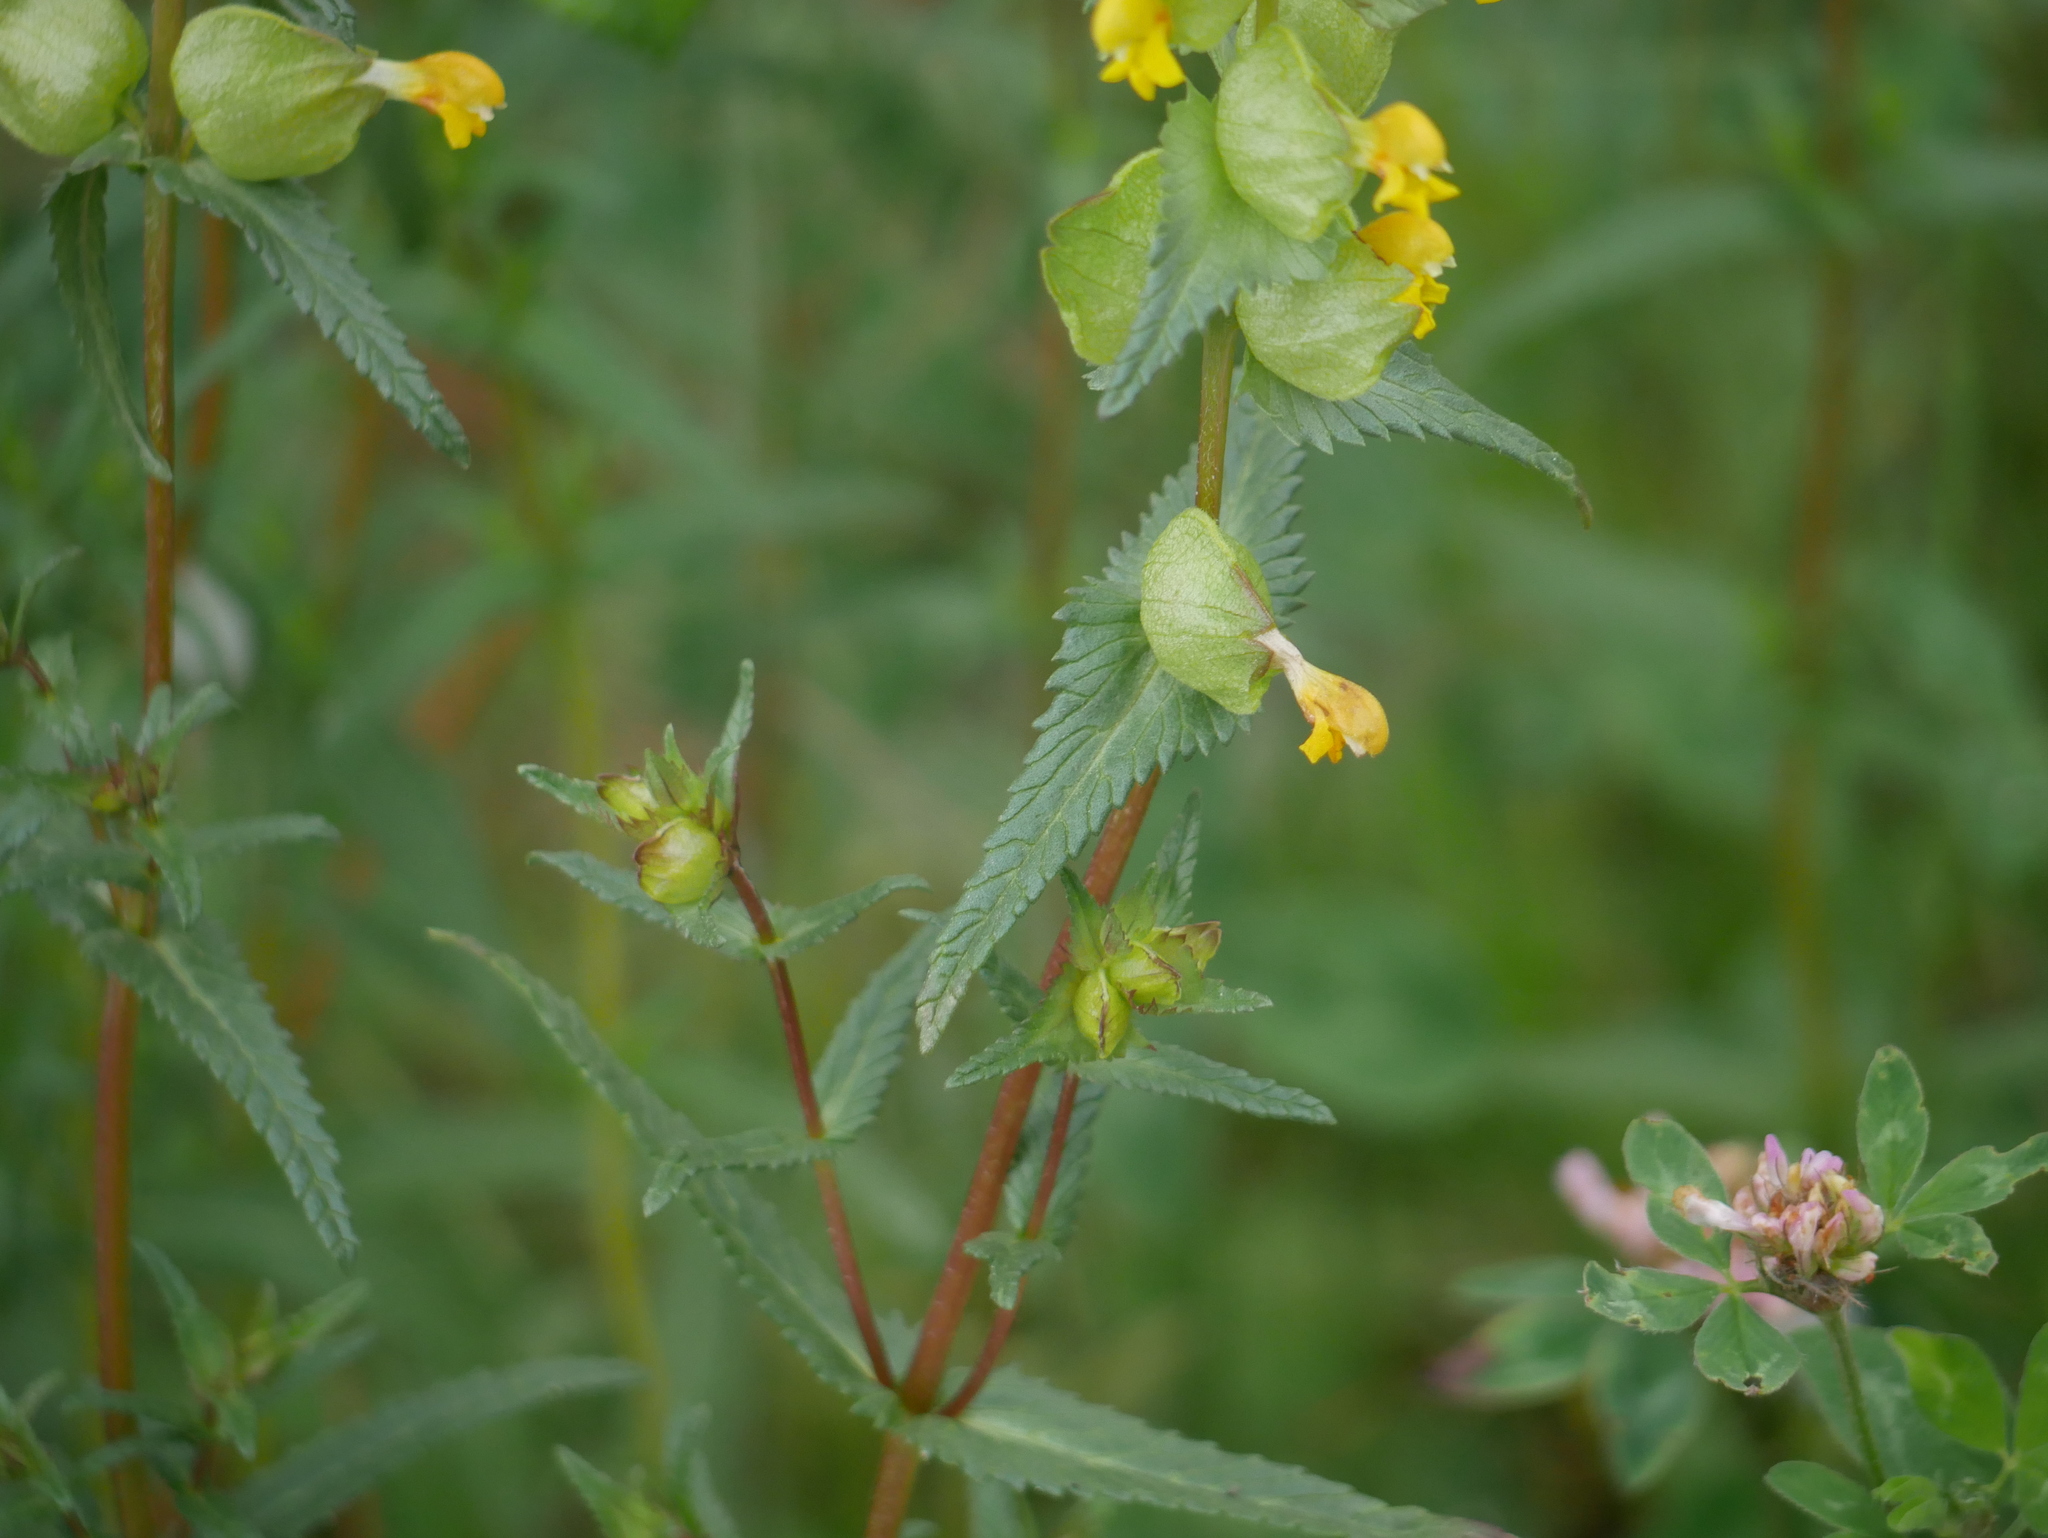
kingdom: Plantae
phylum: Tracheophyta
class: Magnoliopsida
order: Lamiales
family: Orobanchaceae
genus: Rhinanthus
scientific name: Rhinanthus minor
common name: Yellow-rattle
